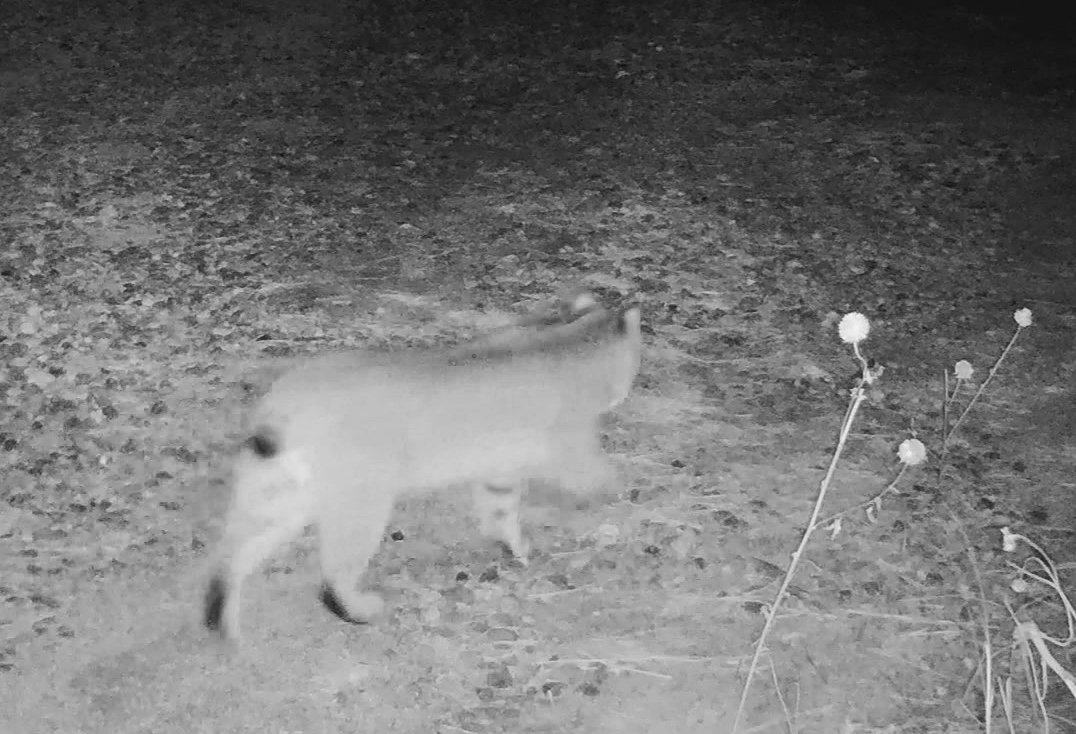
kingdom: Animalia
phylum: Chordata
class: Mammalia
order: Carnivora
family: Felidae
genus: Lynx
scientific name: Lynx rufus
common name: Bobcat
